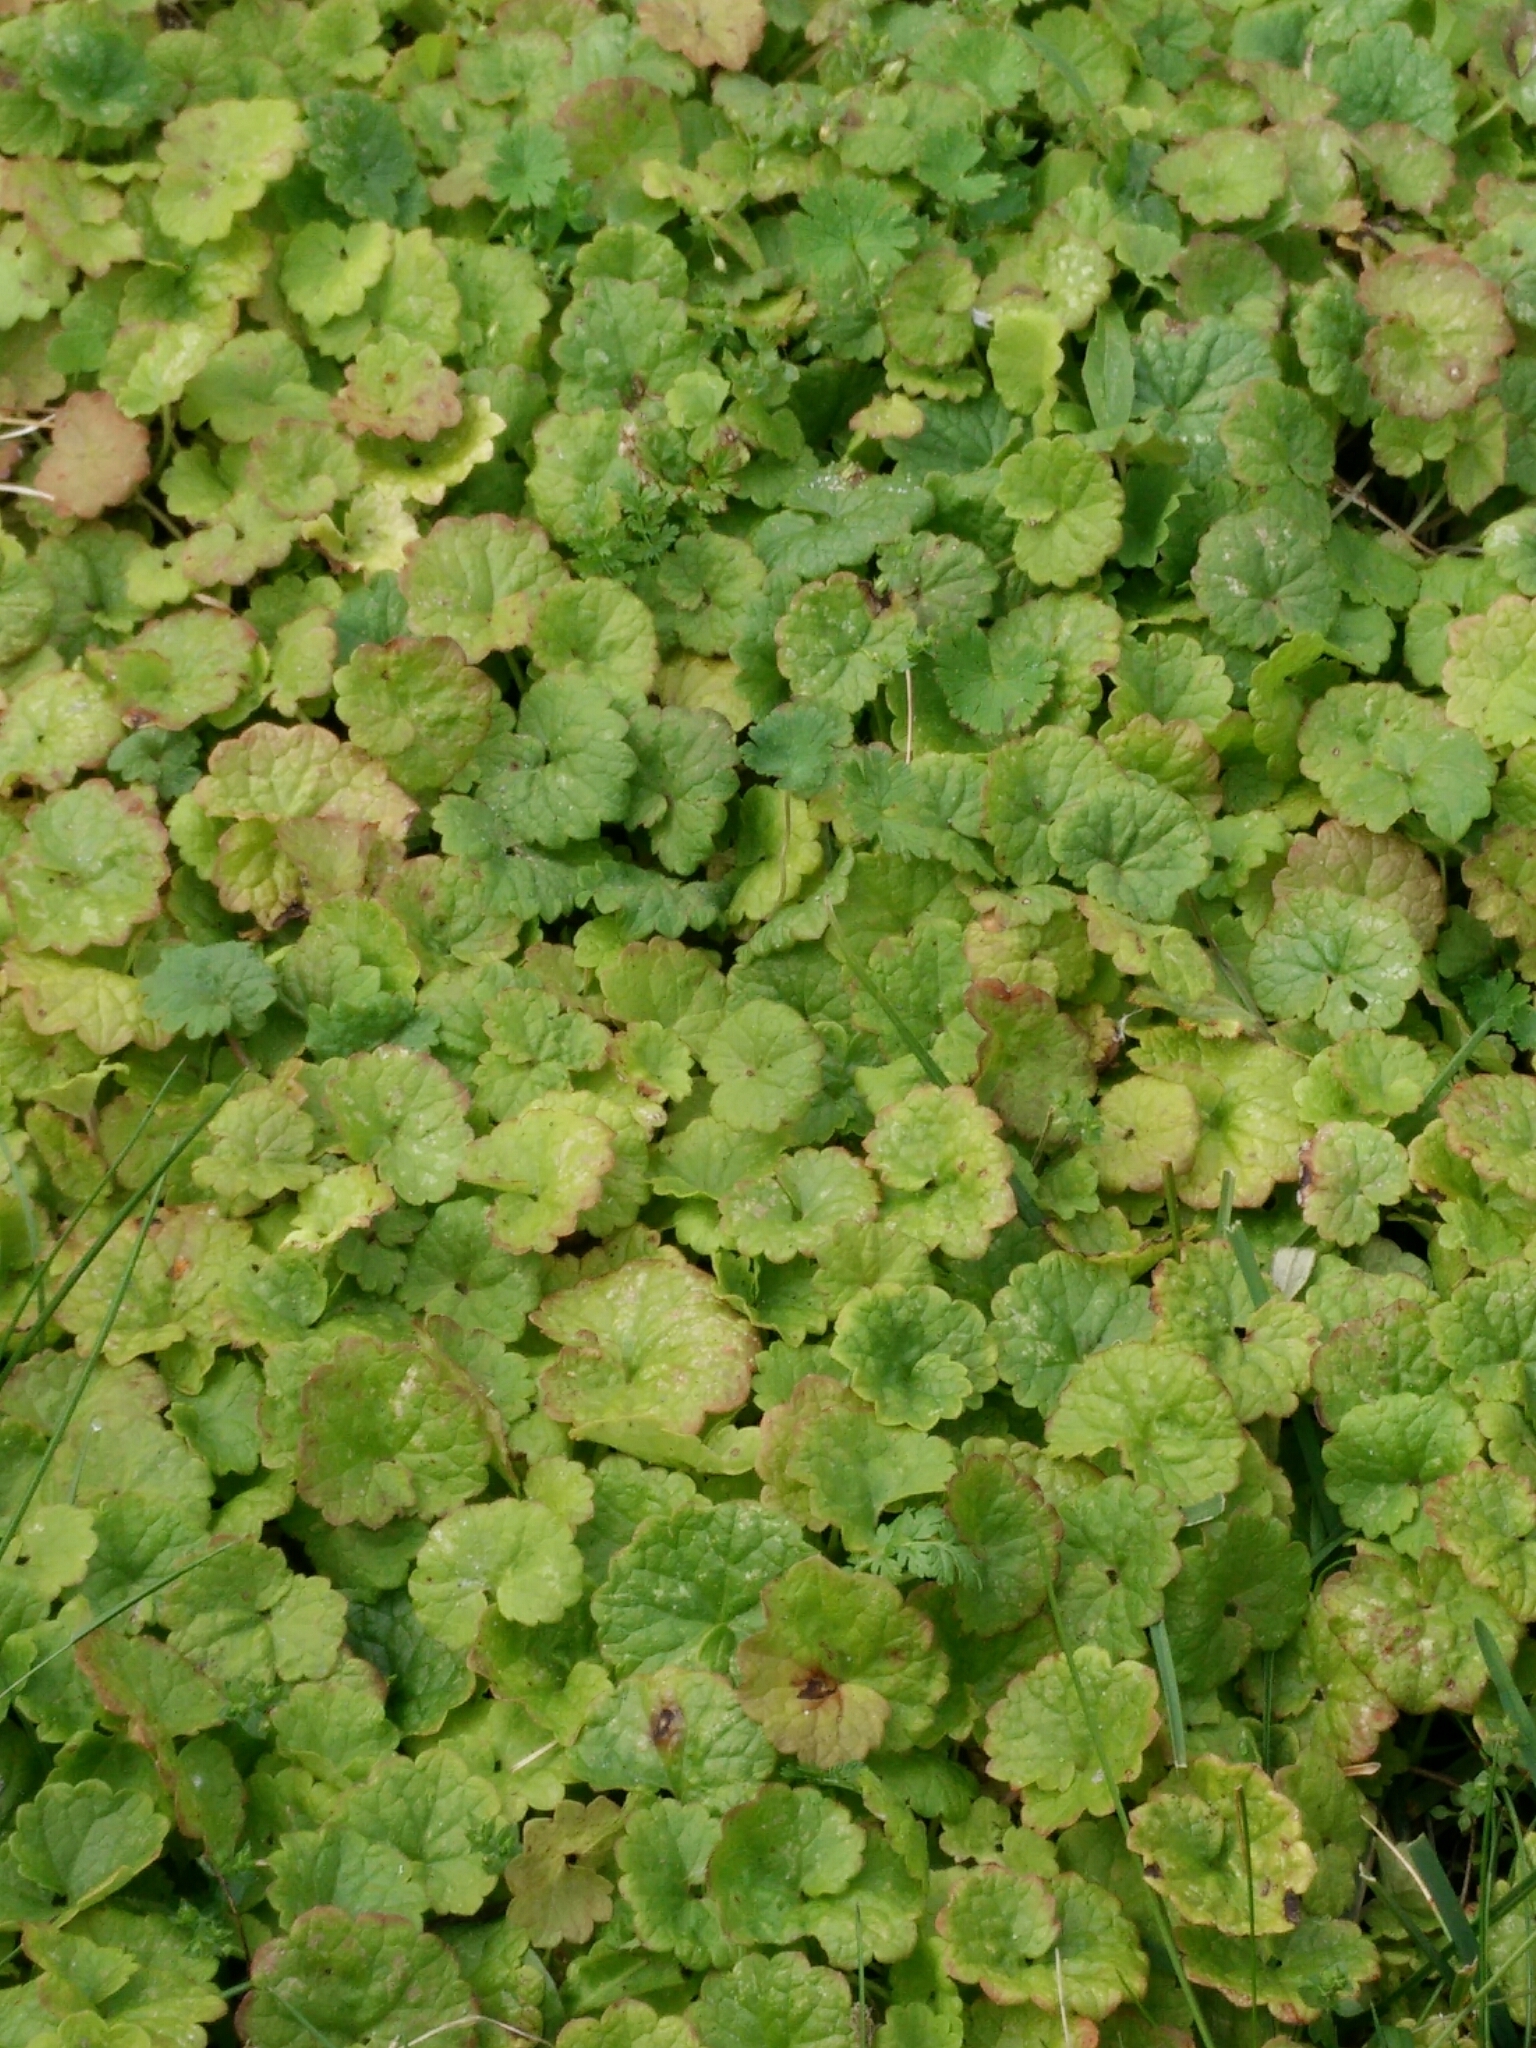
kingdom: Plantae
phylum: Tracheophyta
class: Magnoliopsida
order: Lamiales
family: Lamiaceae
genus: Glechoma
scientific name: Glechoma hederacea
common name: Ground ivy
